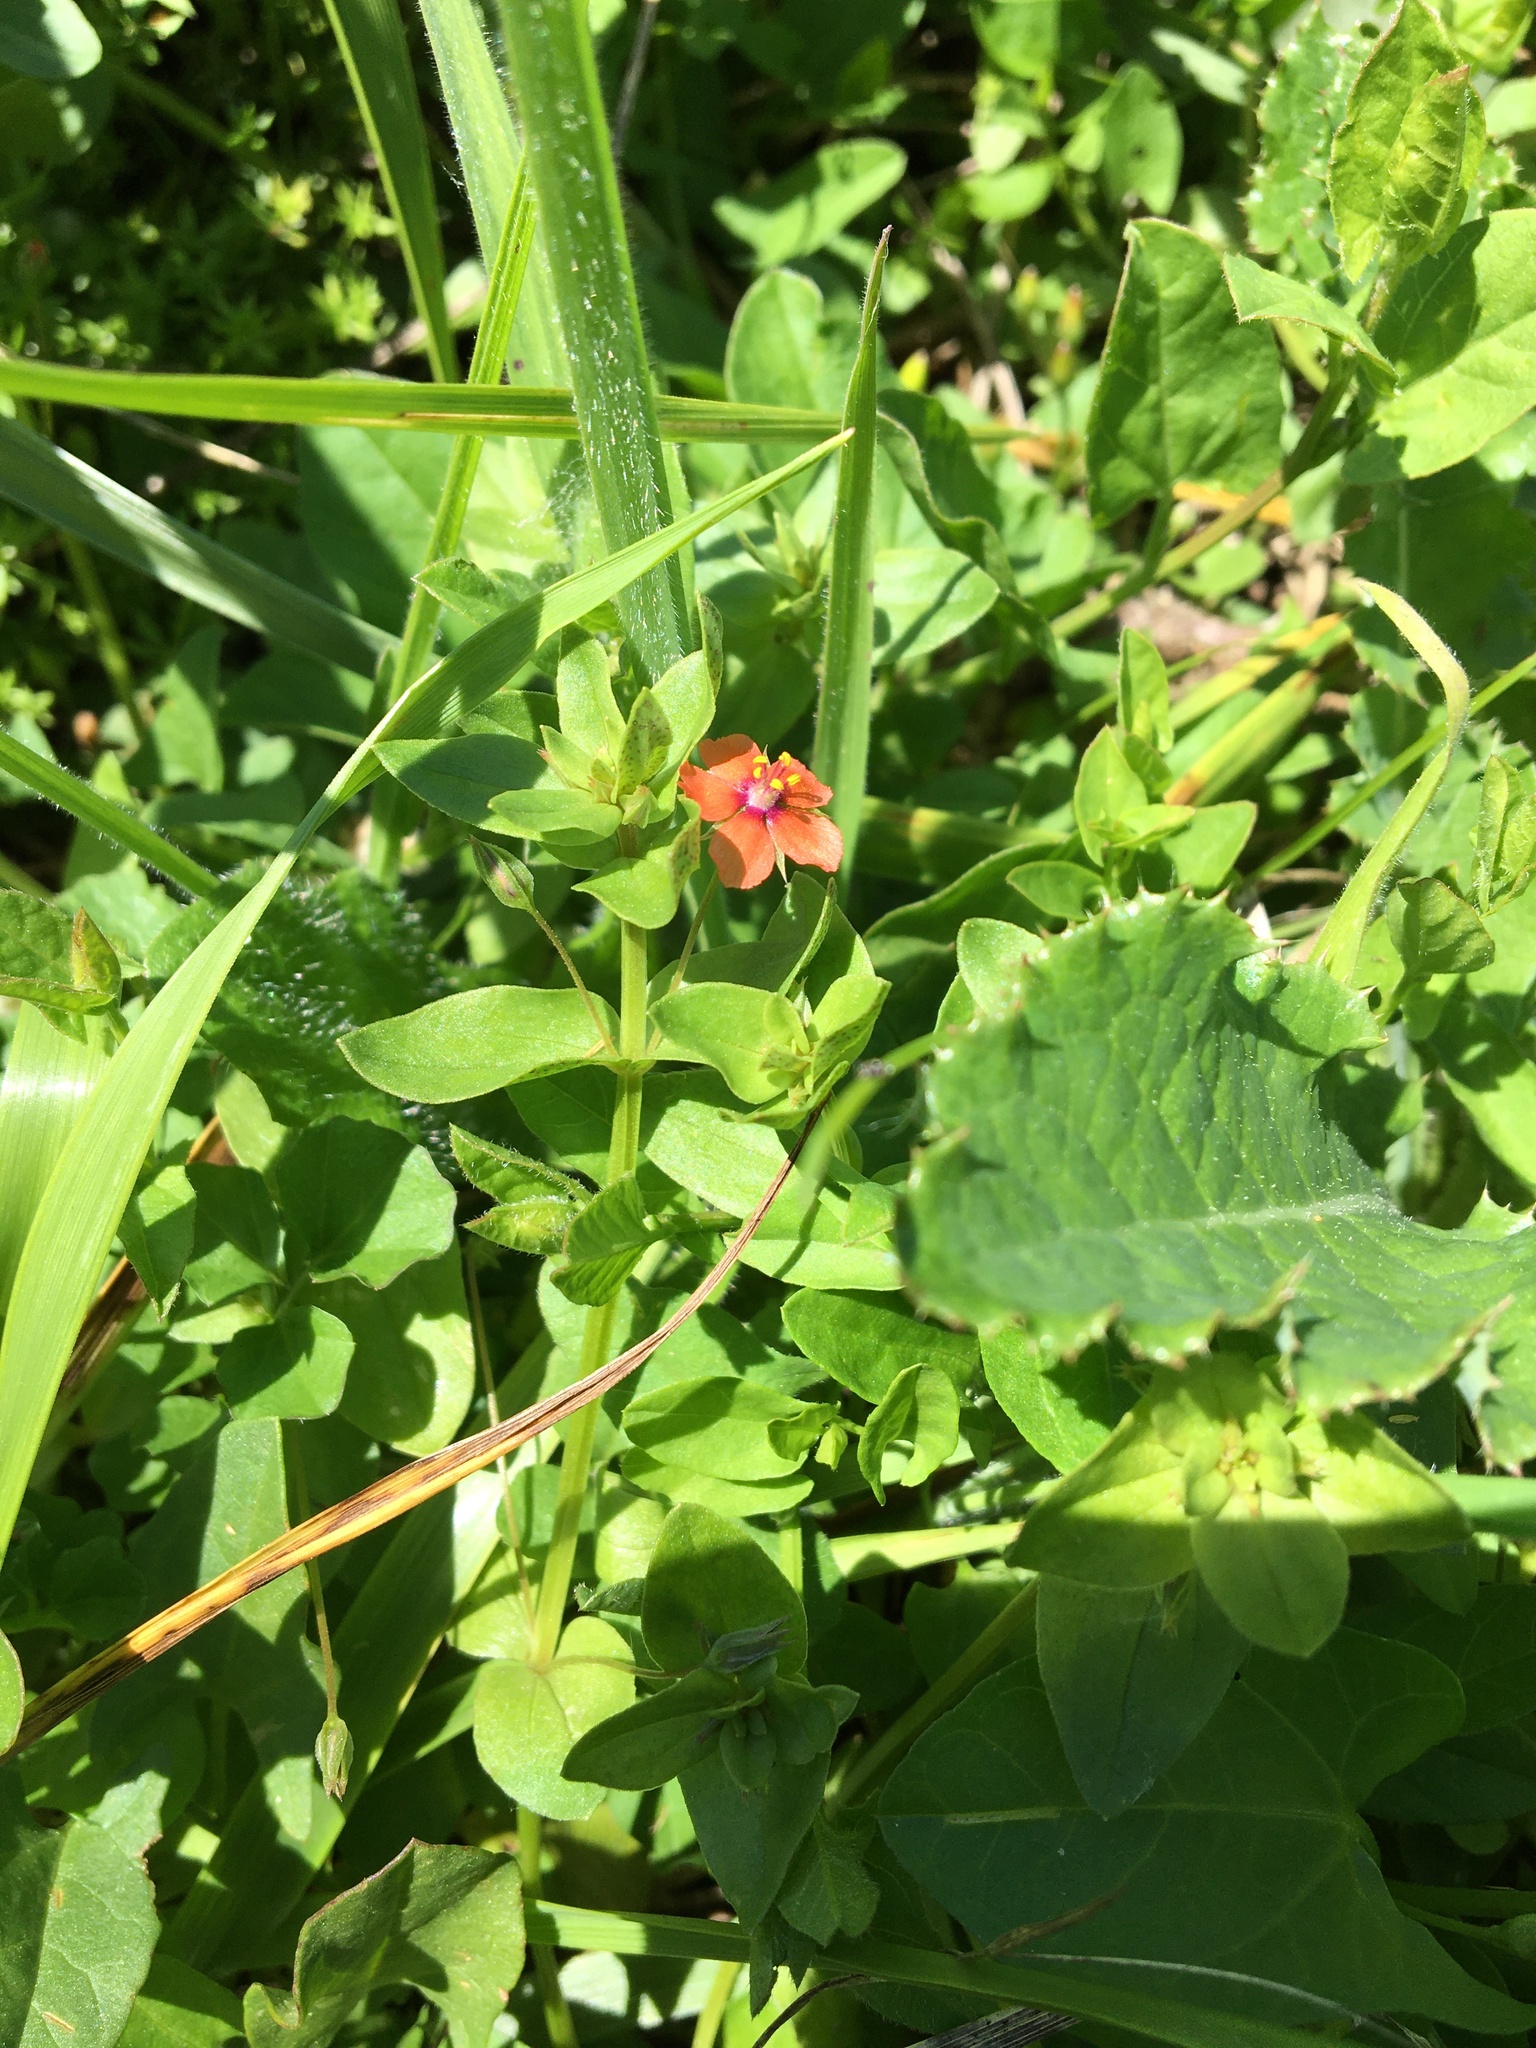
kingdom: Plantae
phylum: Tracheophyta
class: Magnoliopsida
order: Ericales
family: Primulaceae
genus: Lysimachia
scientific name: Lysimachia arvensis
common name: Scarlet pimpernel
